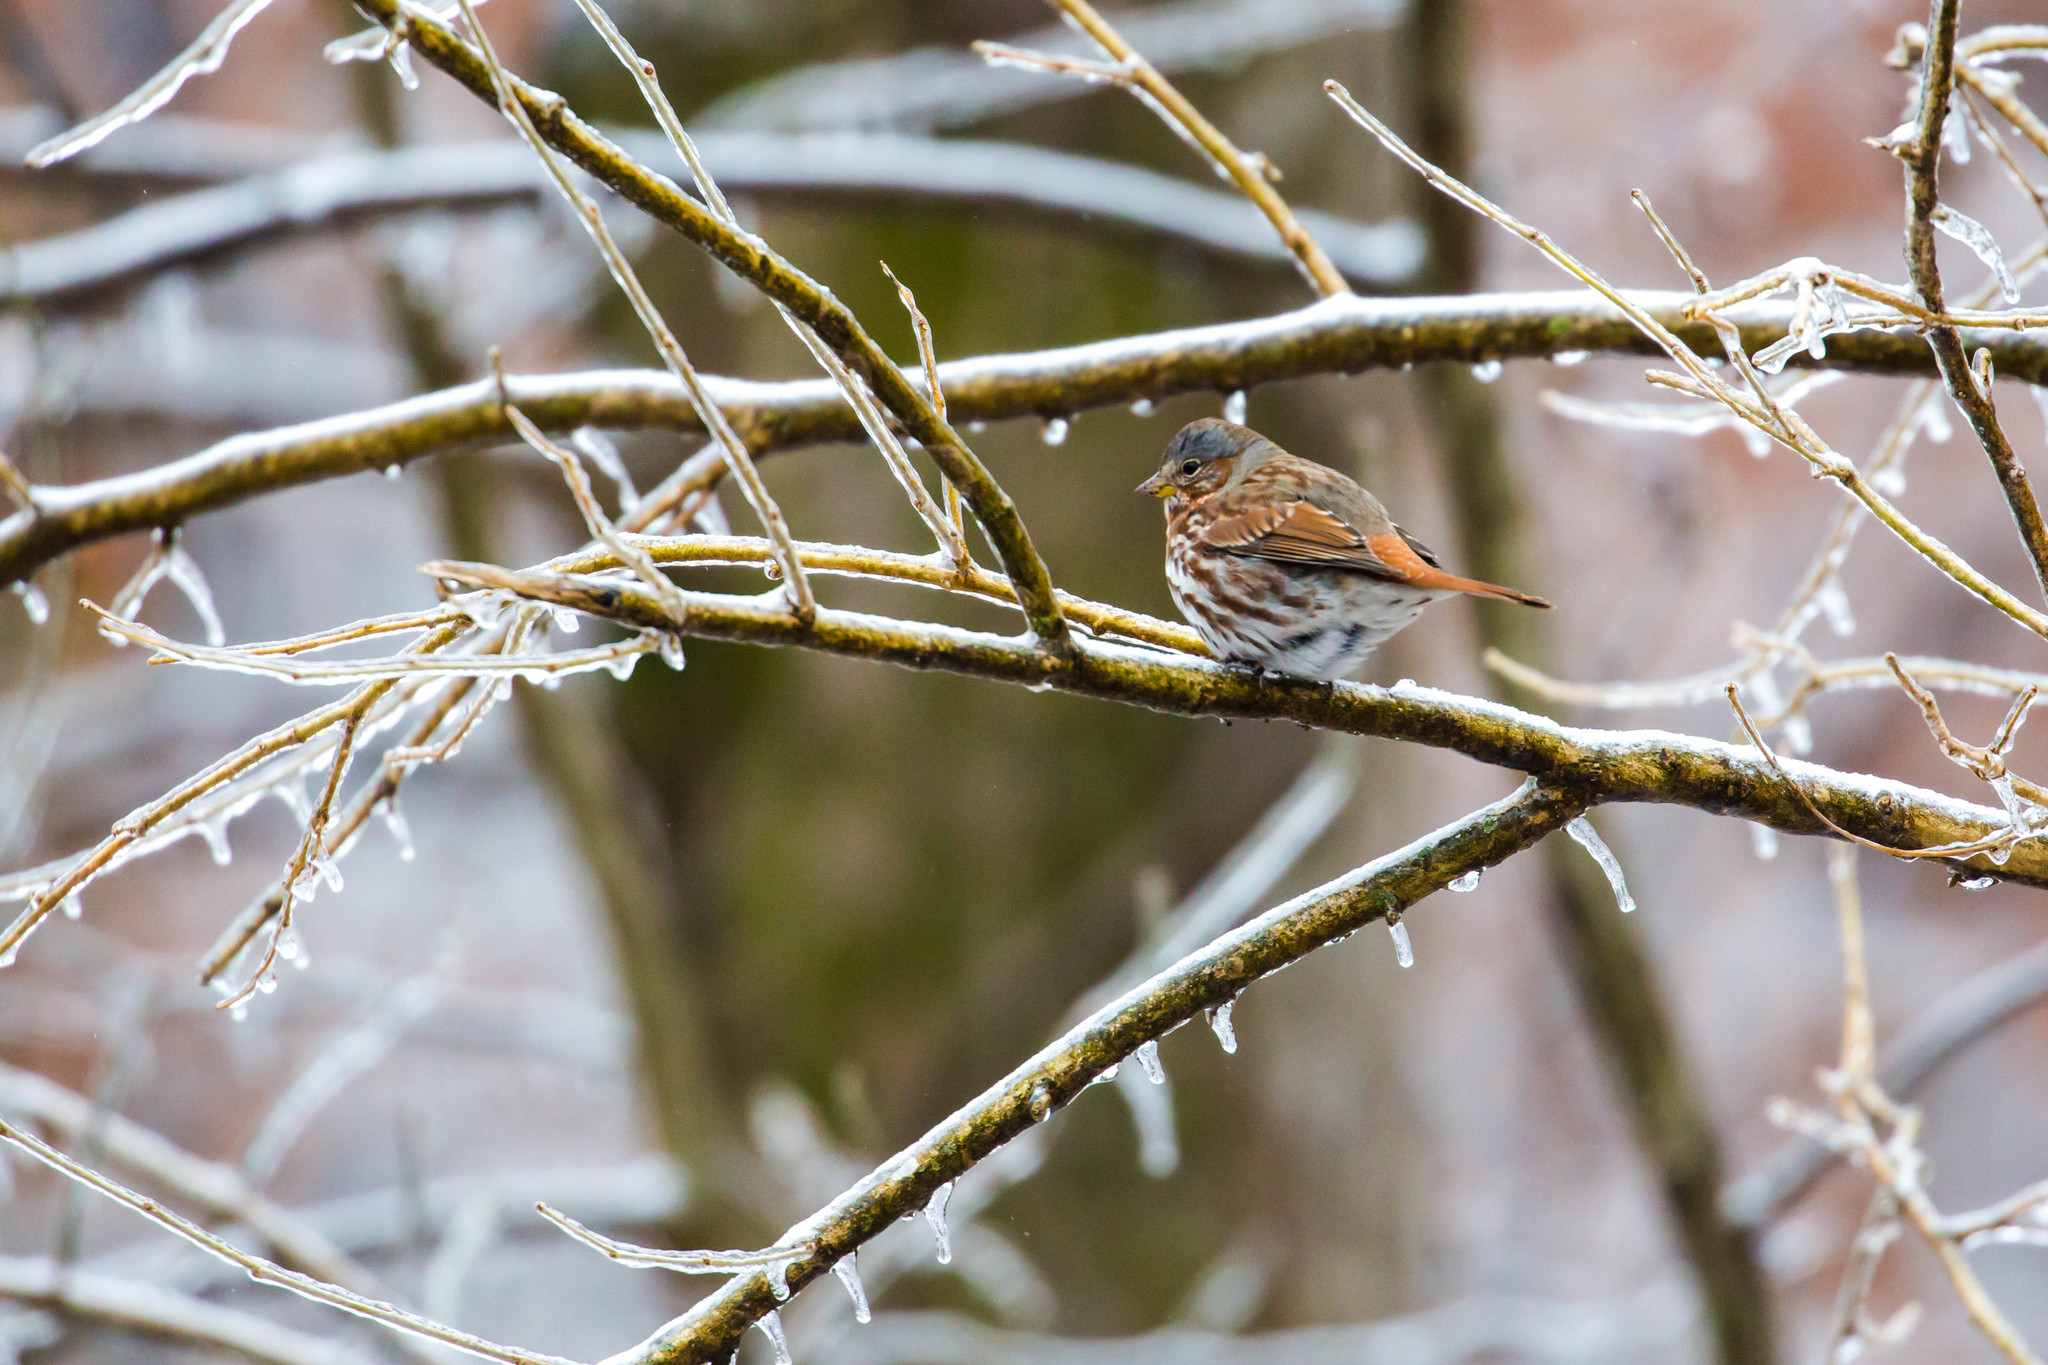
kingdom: Animalia
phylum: Chordata
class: Aves
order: Passeriformes
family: Passerellidae
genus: Passerella
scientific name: Passerella iliaca
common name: Fox sparrow
